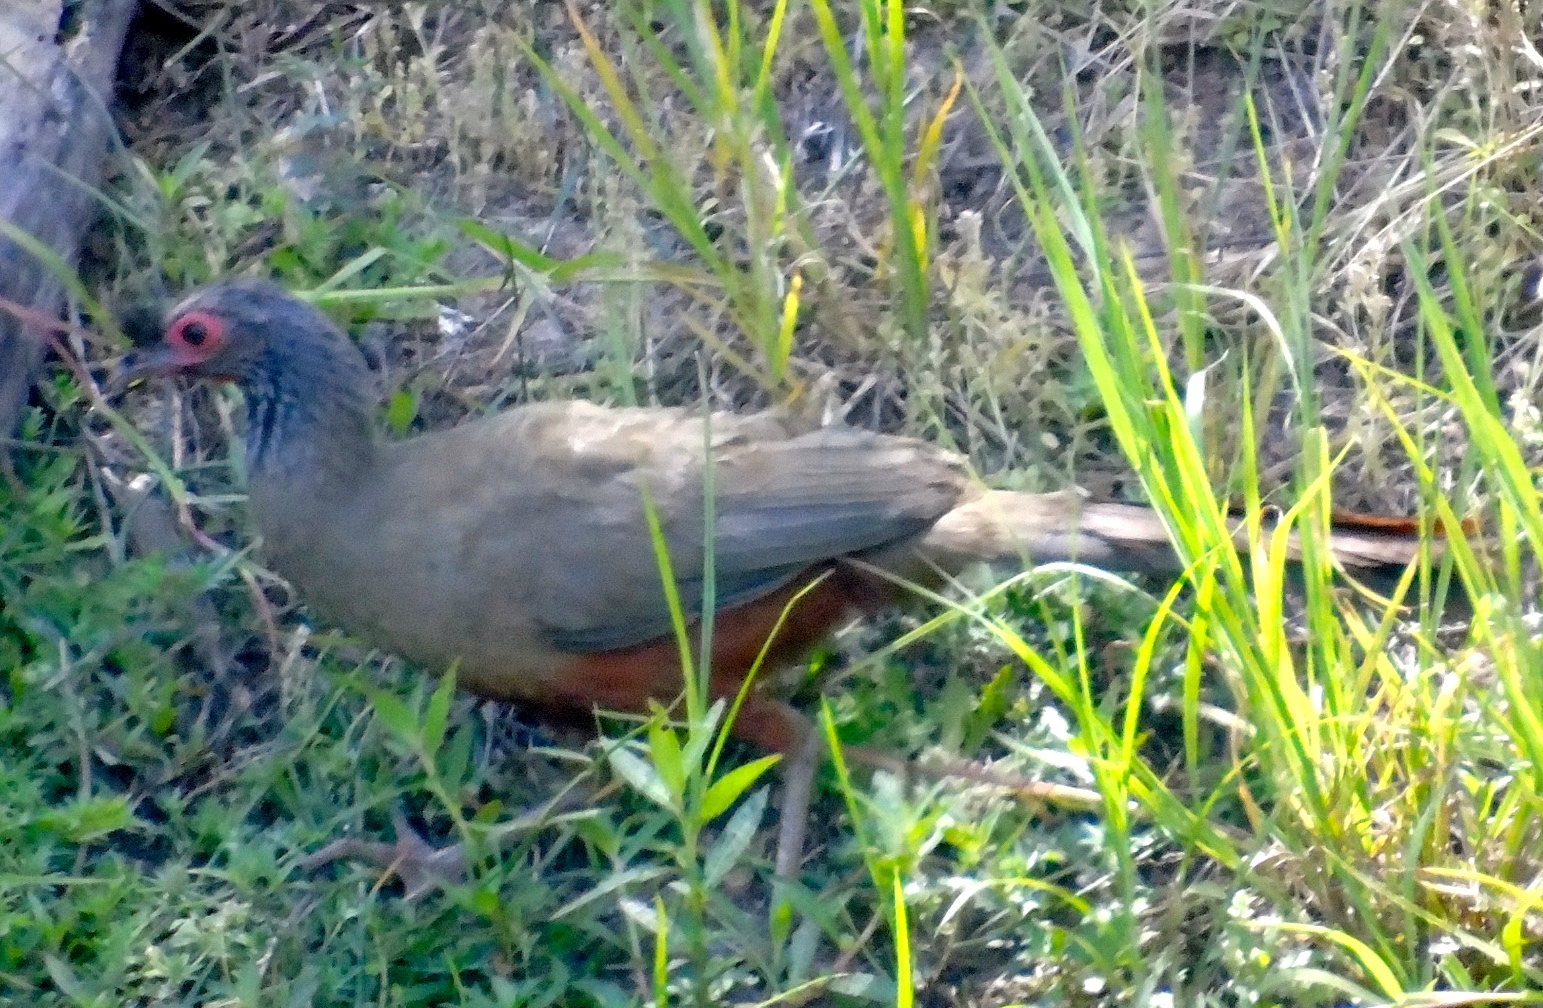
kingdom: Animalia
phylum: Chordata
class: Aves
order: Galliformes
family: Cracidae
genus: Ortalis
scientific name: Ortalis wagleri
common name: Rufous-bellied chachalaca
